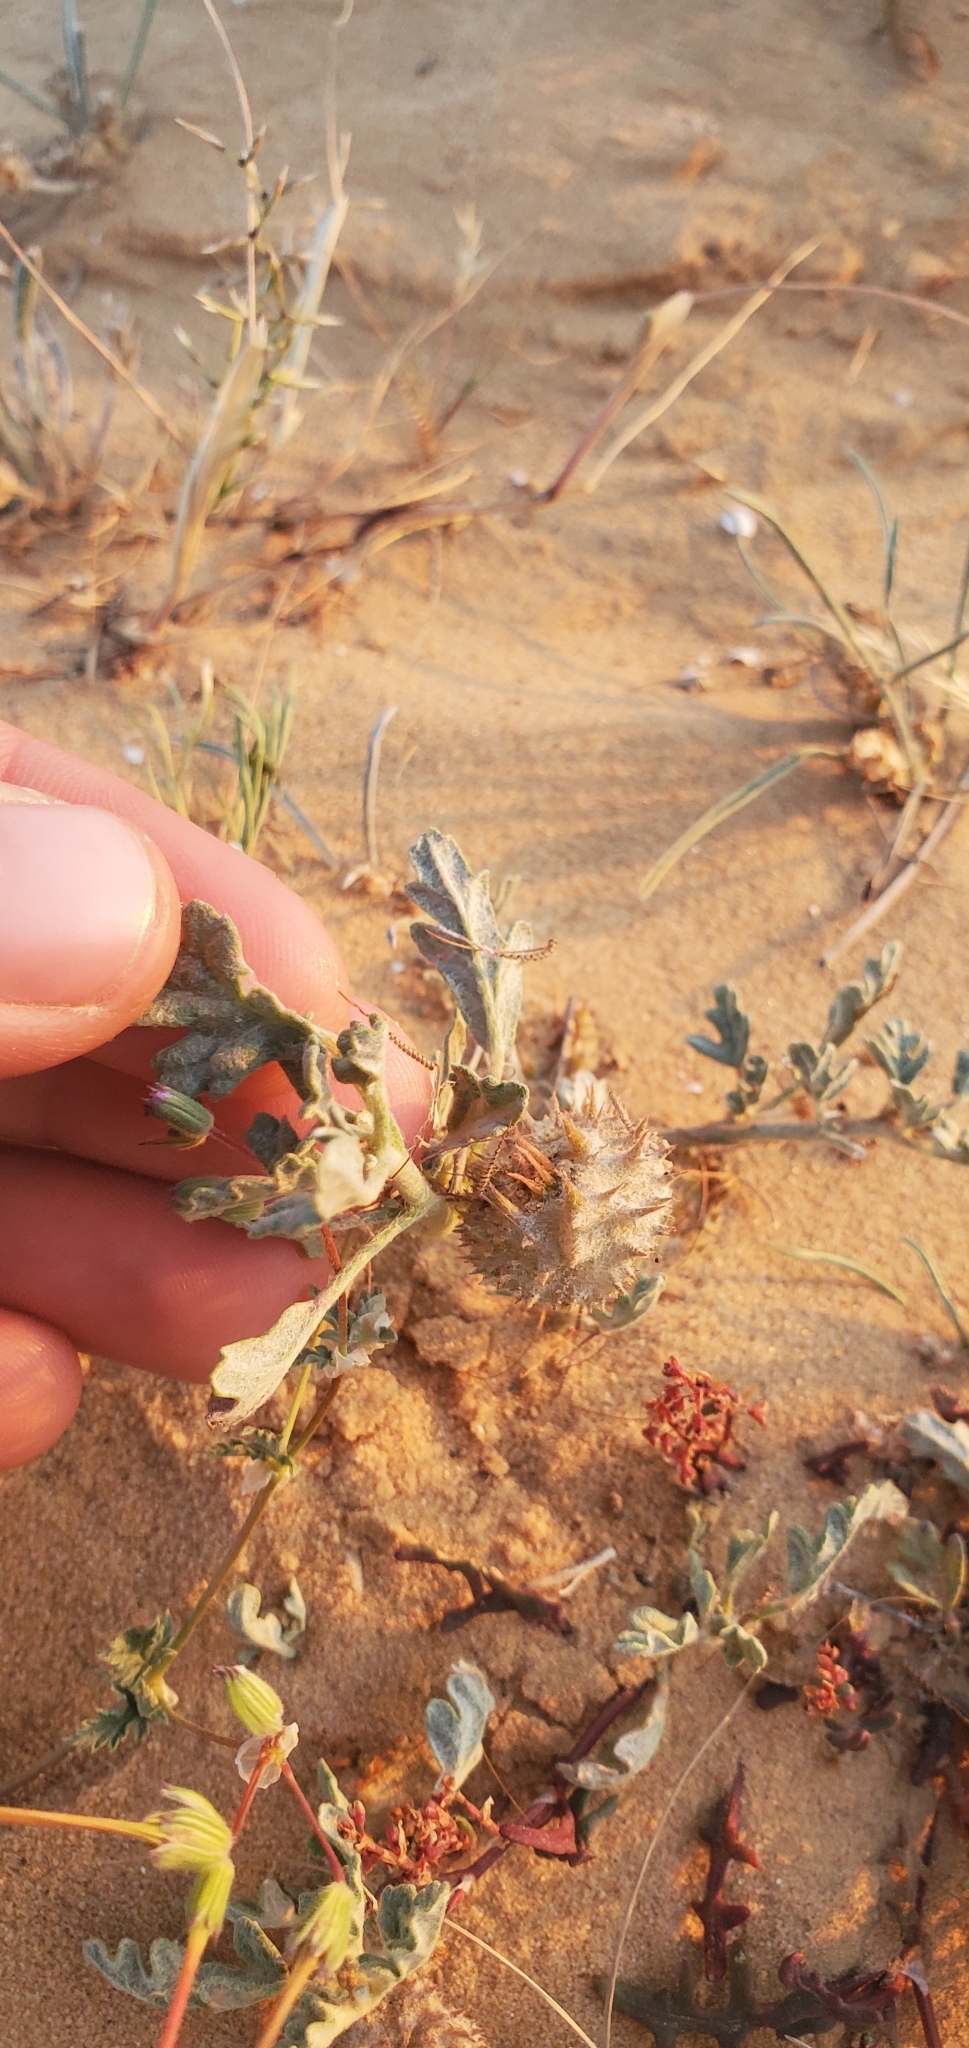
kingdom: Plantae
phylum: Tracheophyta
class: Magnoliopsida
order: Malvales
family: Neuradaceae
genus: Neurada
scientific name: Neurada procumbens
